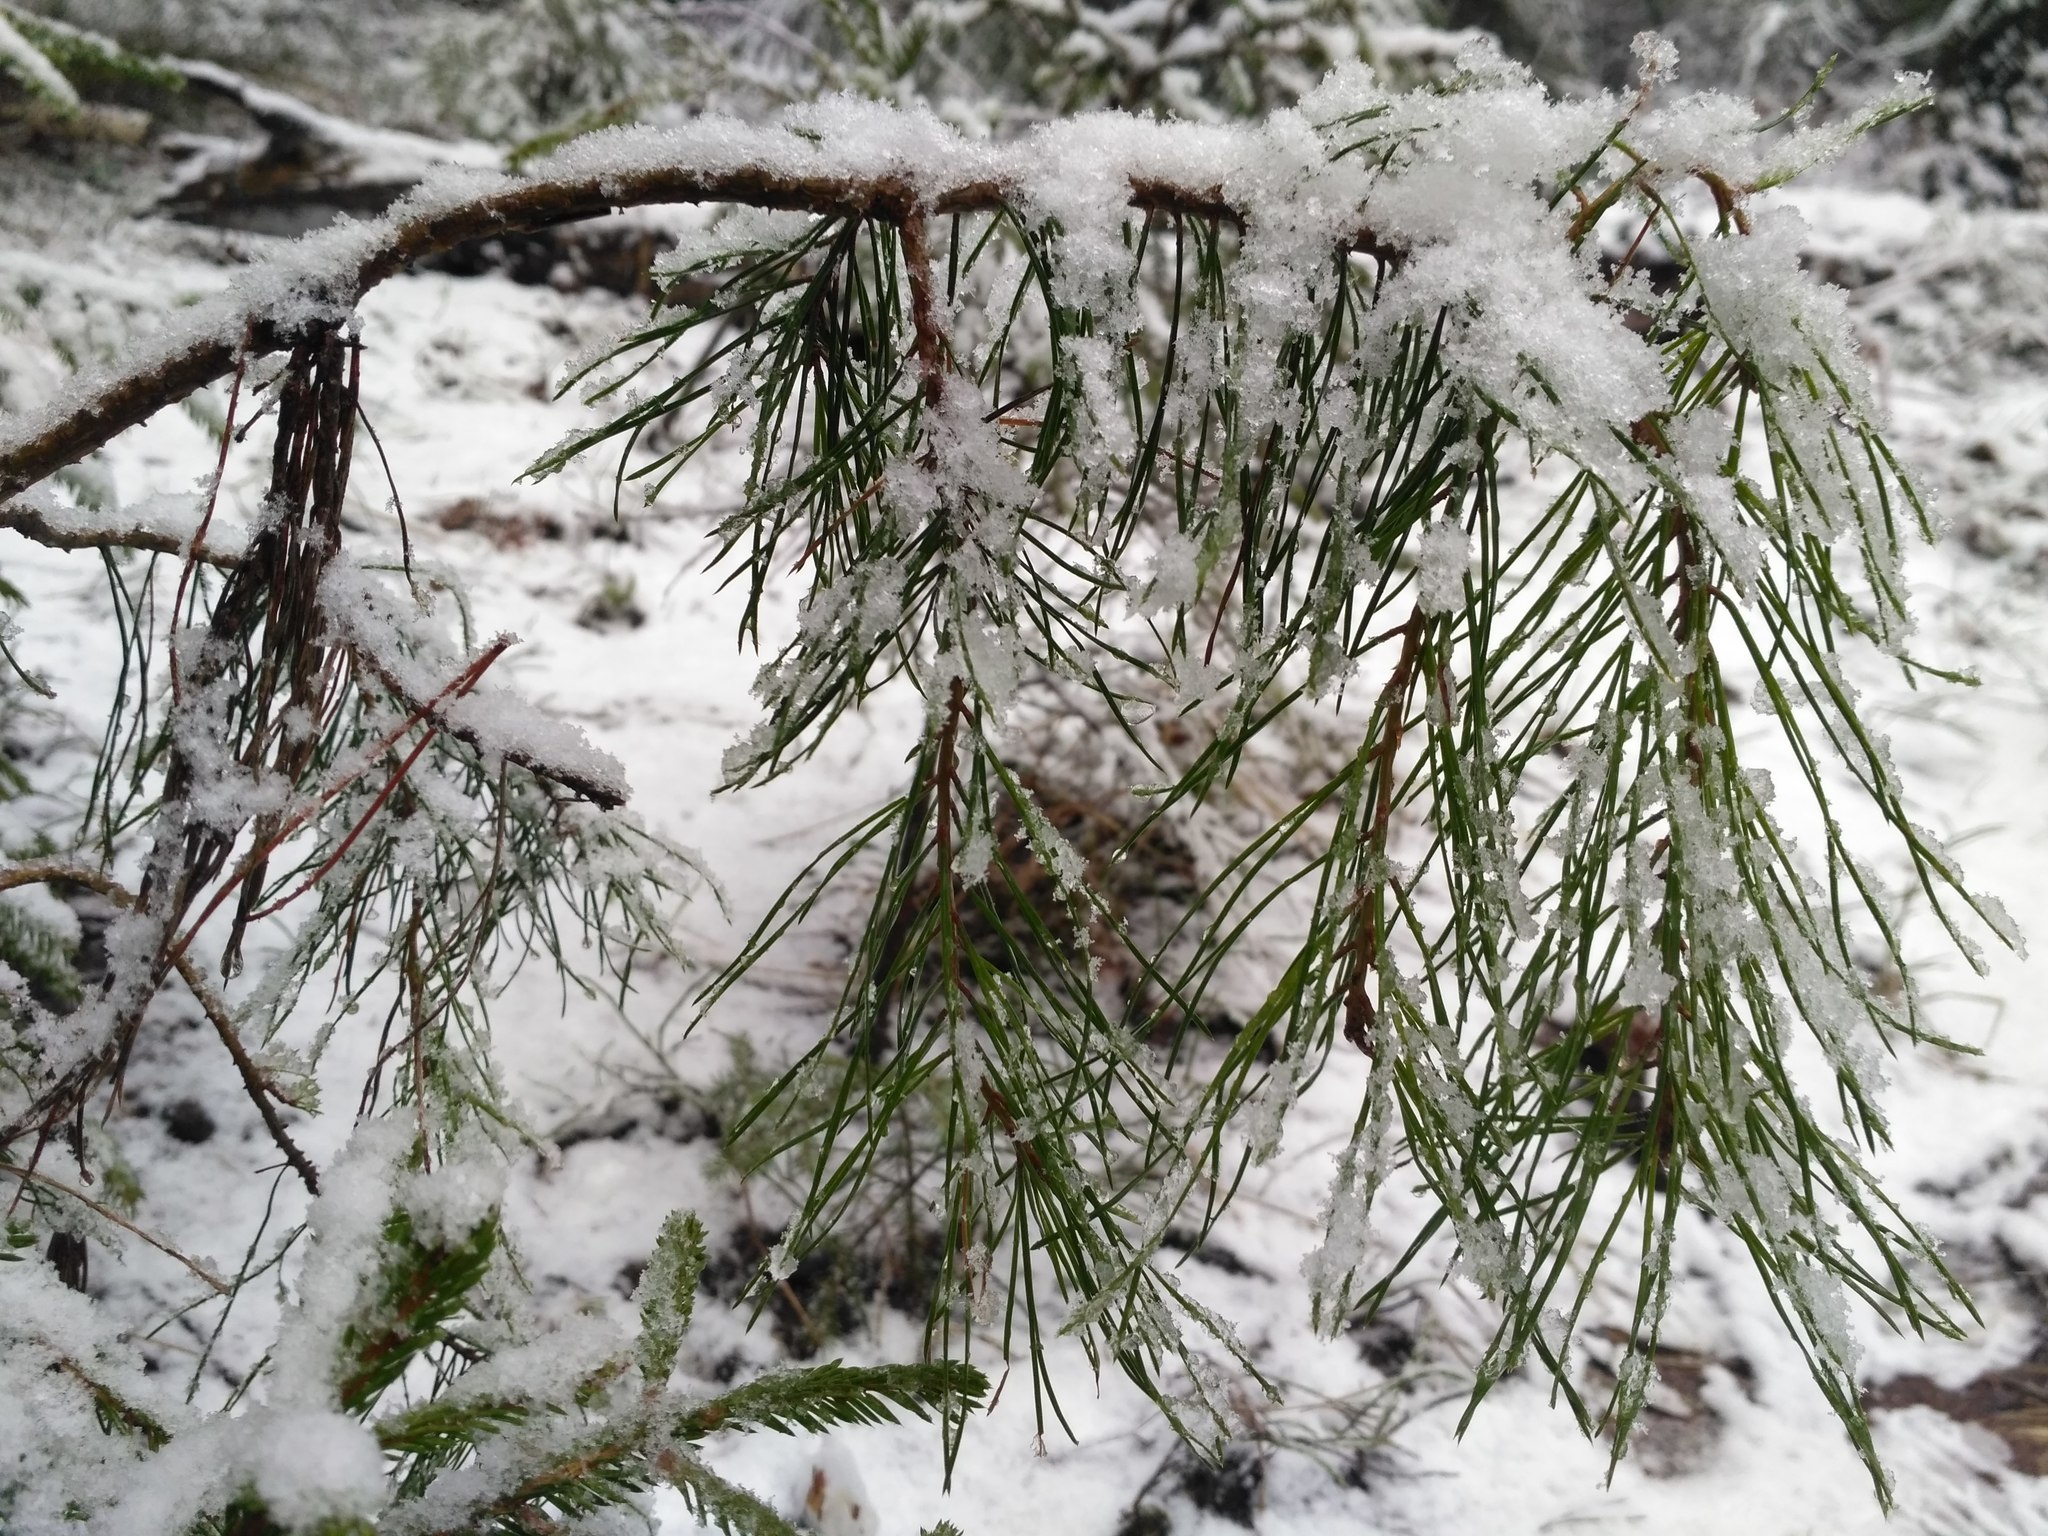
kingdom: Plantae
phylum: Tracheophyta
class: Pinopsida
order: Pinales
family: Pinaceae
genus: Pinus
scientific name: Pinus sylvestris
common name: Scots pine
